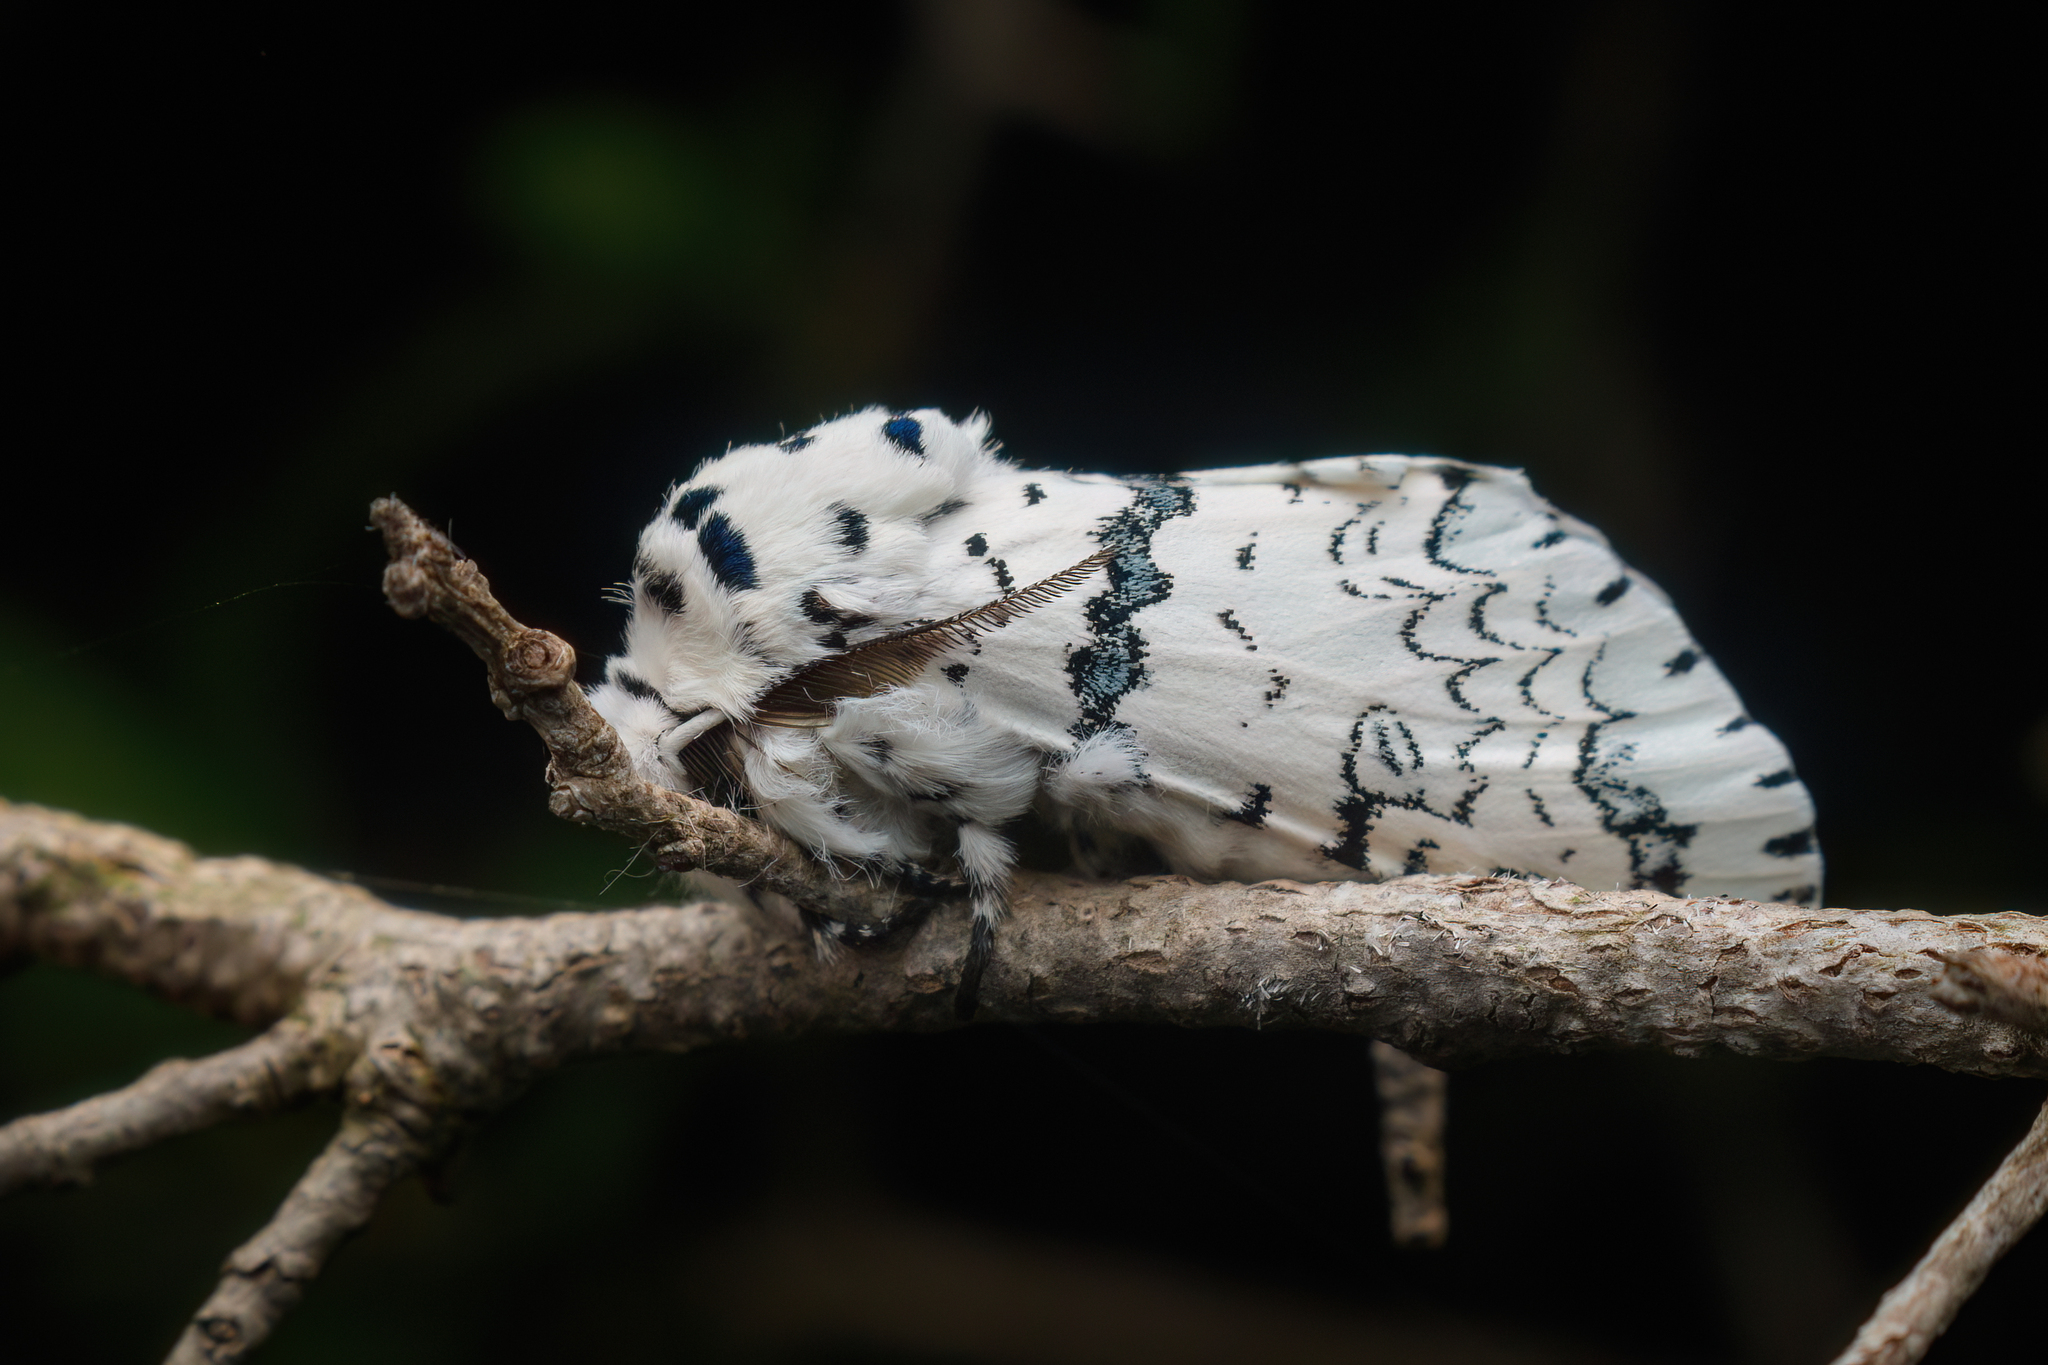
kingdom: Animalia
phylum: Arthropoda
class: Insecta
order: Lepidoptera
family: Notodontidae
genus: Kamalia
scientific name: Kamalia kandyia
